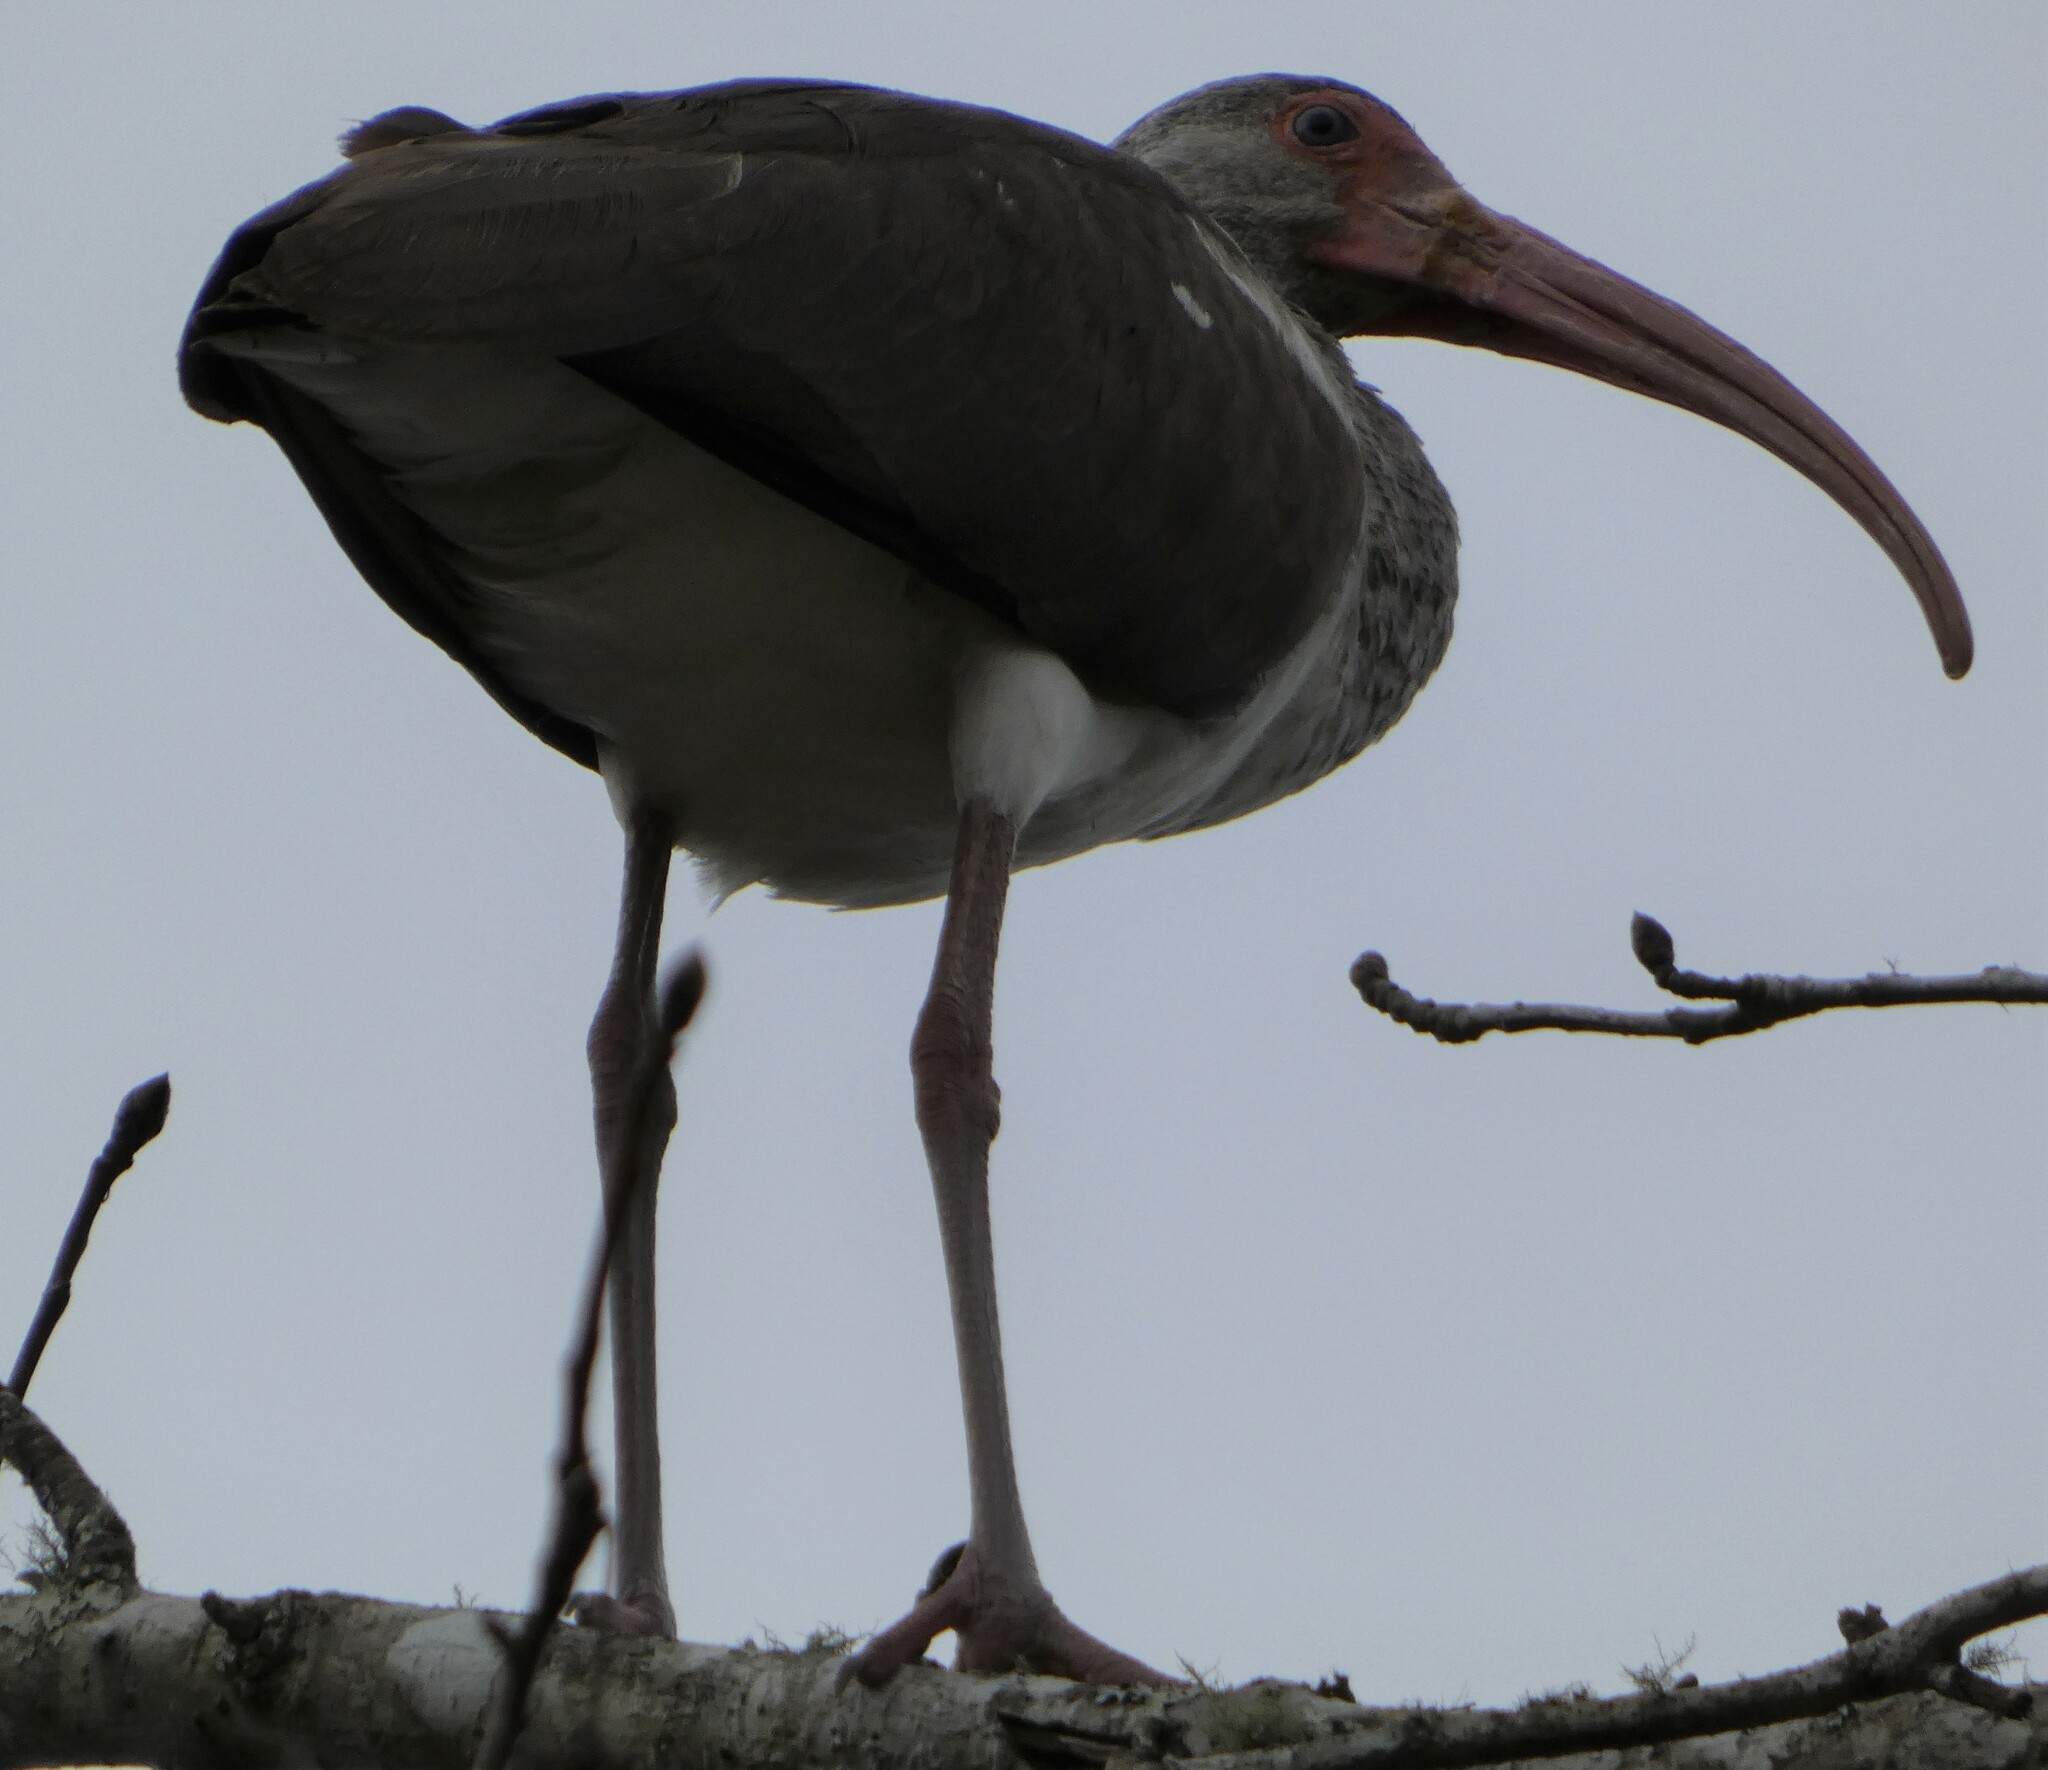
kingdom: Animalia
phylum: Chordata
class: Aves
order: Pelecaniformes
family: Threskiornithidae
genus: Eudocimus
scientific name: Eudocimus albus
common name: White ibis
